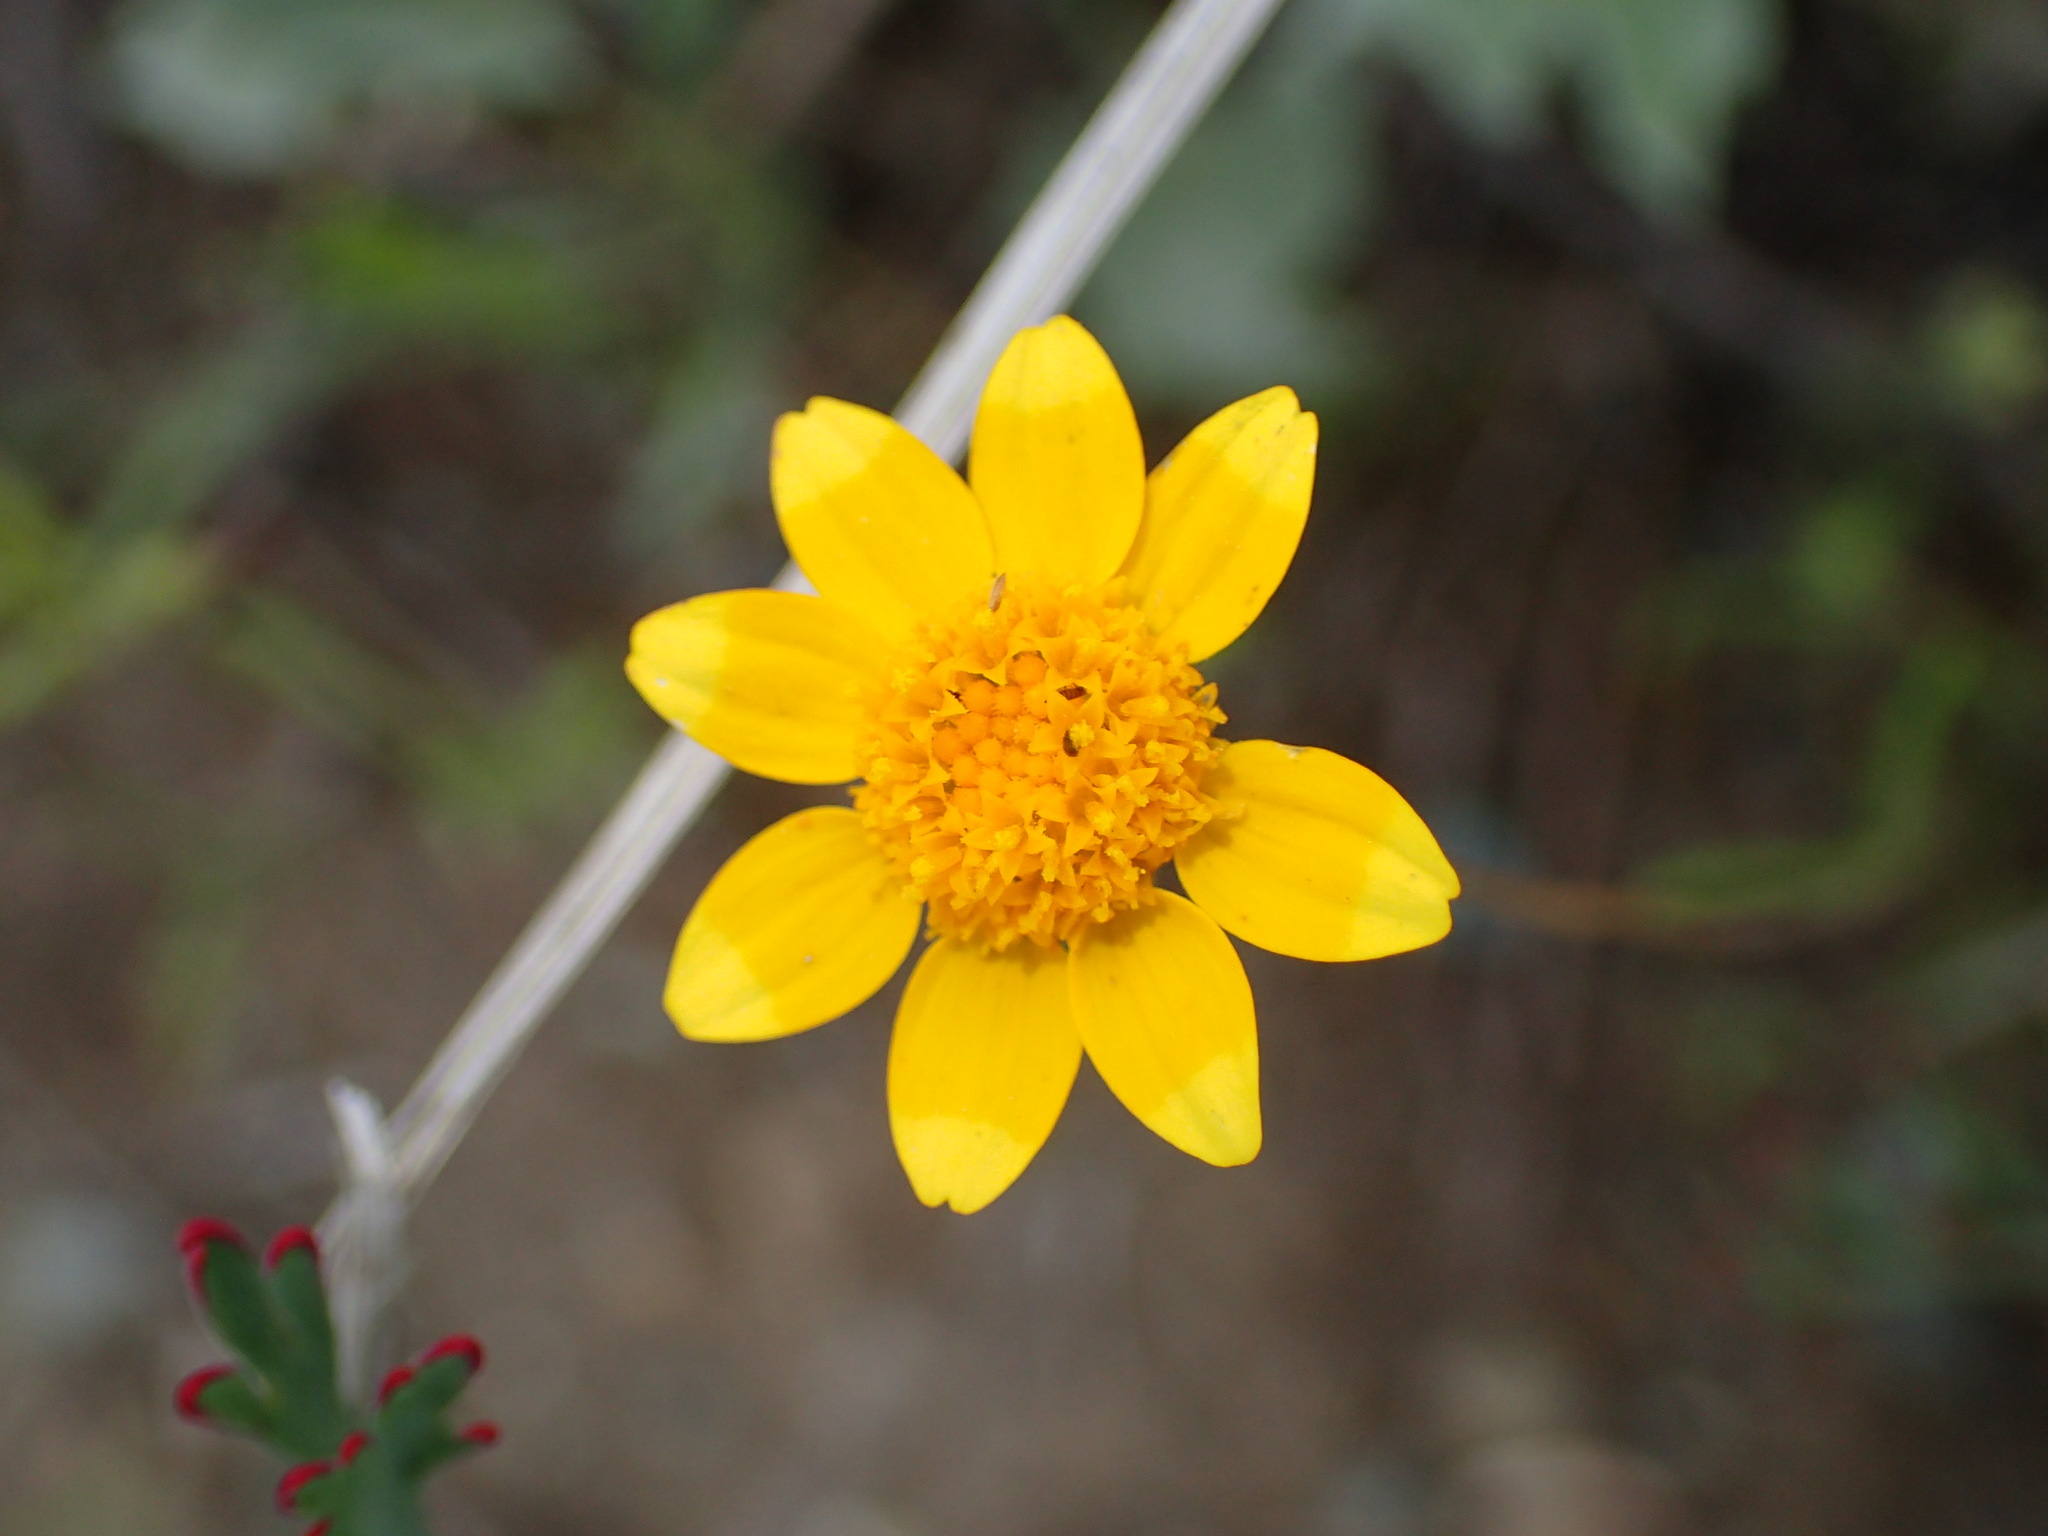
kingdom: Plantae
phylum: Tracheophyta
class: Magnoliopsida
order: Asterales
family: Asteraceae
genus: Lasthenia
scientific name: Lasthenia gracilis
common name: Common goldfields
